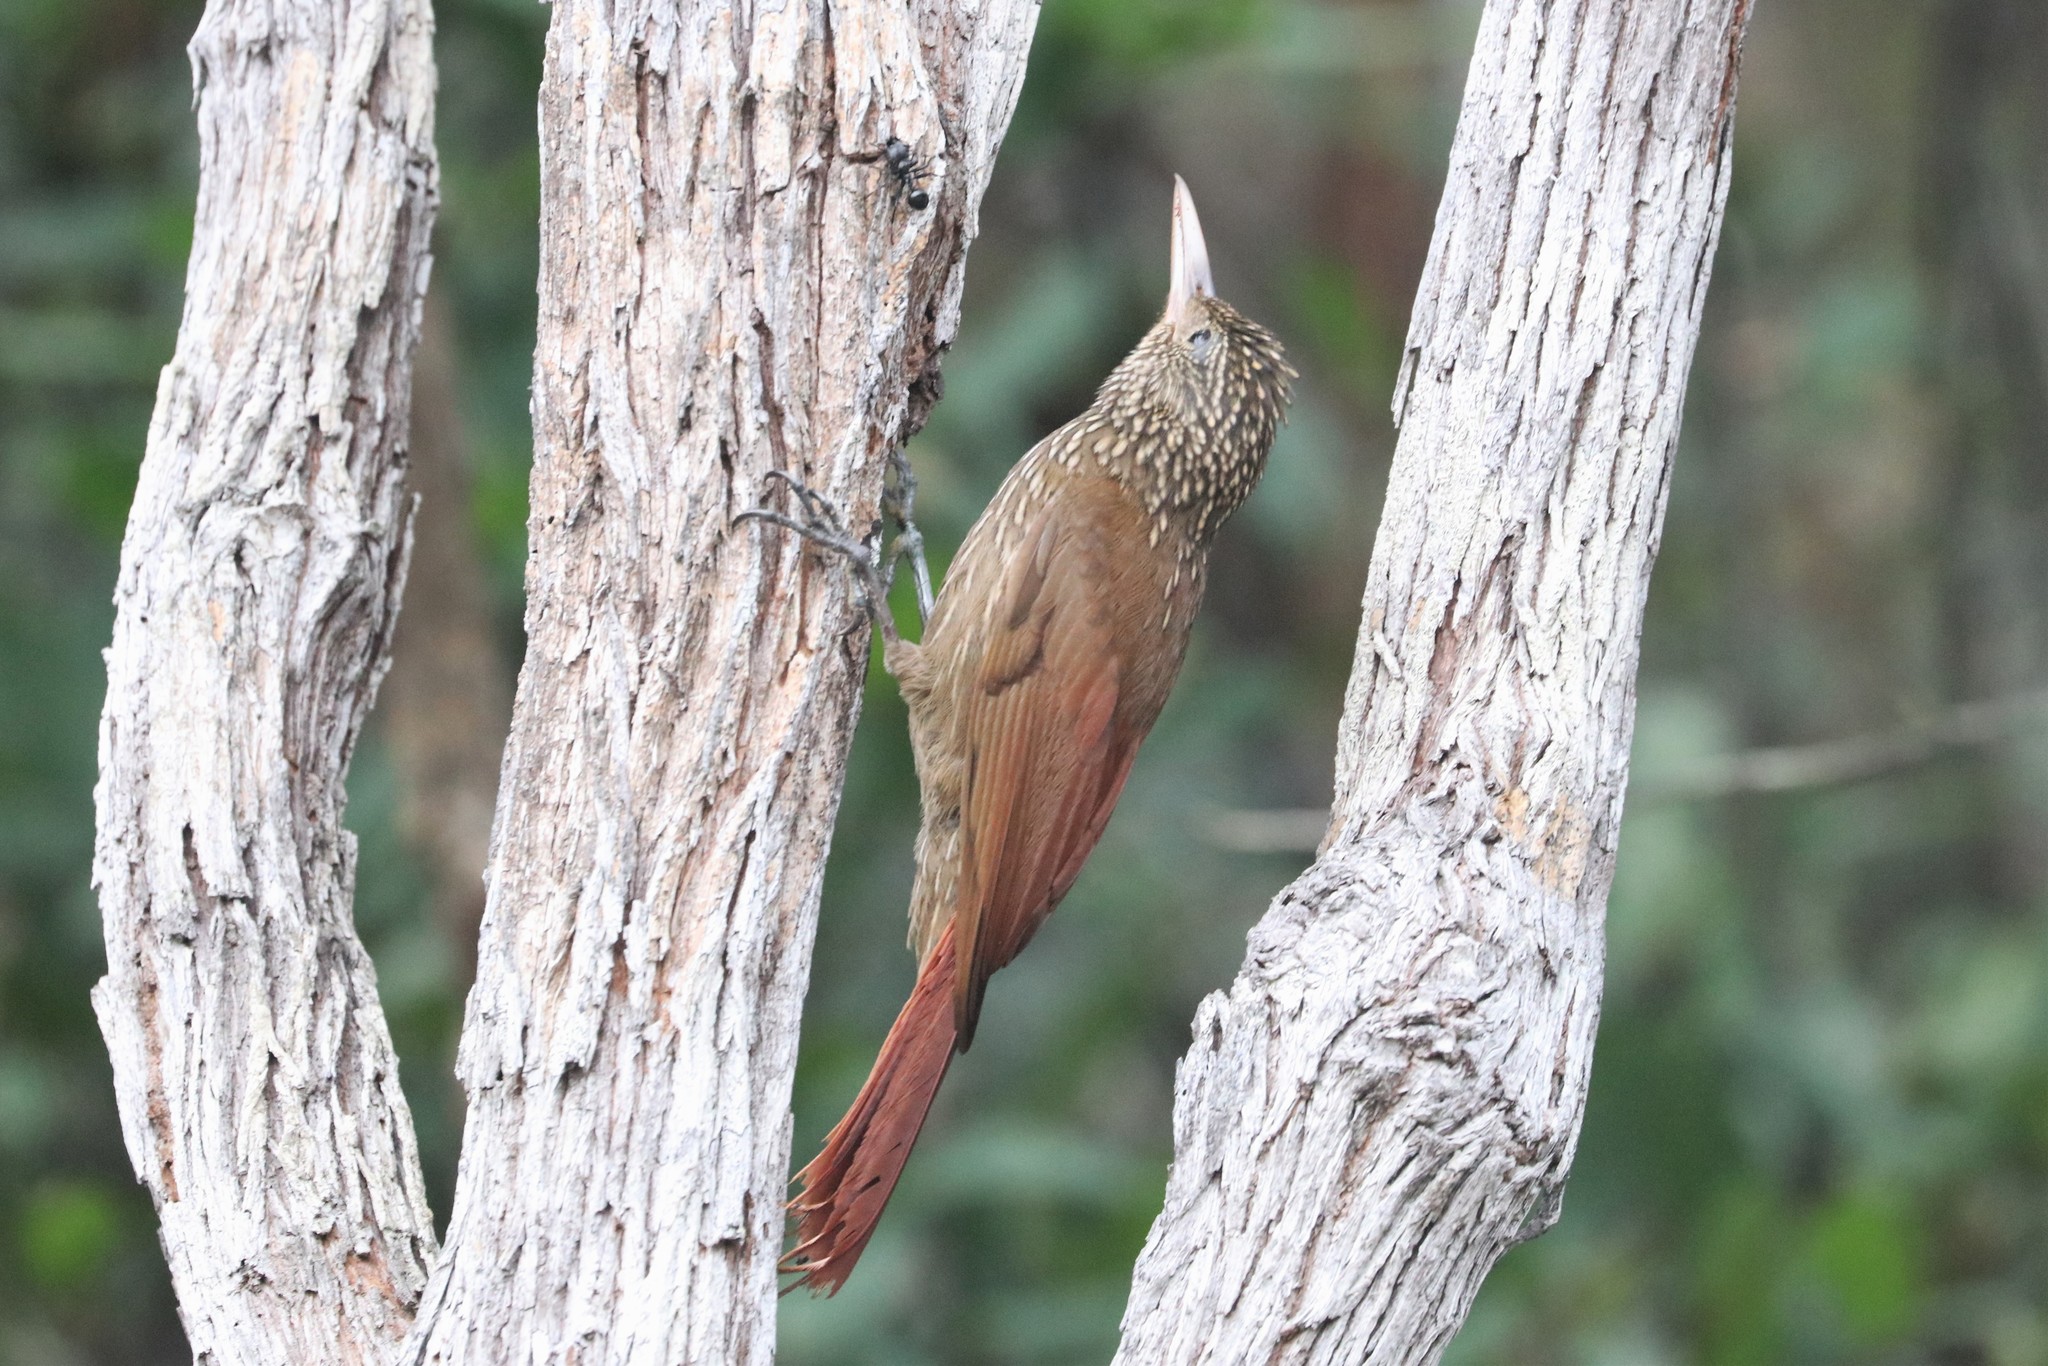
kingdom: Animalia
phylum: Chordata
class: Aves
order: Passeriformes
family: Furnariidae
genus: Xiphorhynchus
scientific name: Xiphorhynchus obsoletus
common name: Striped woodcreeper
